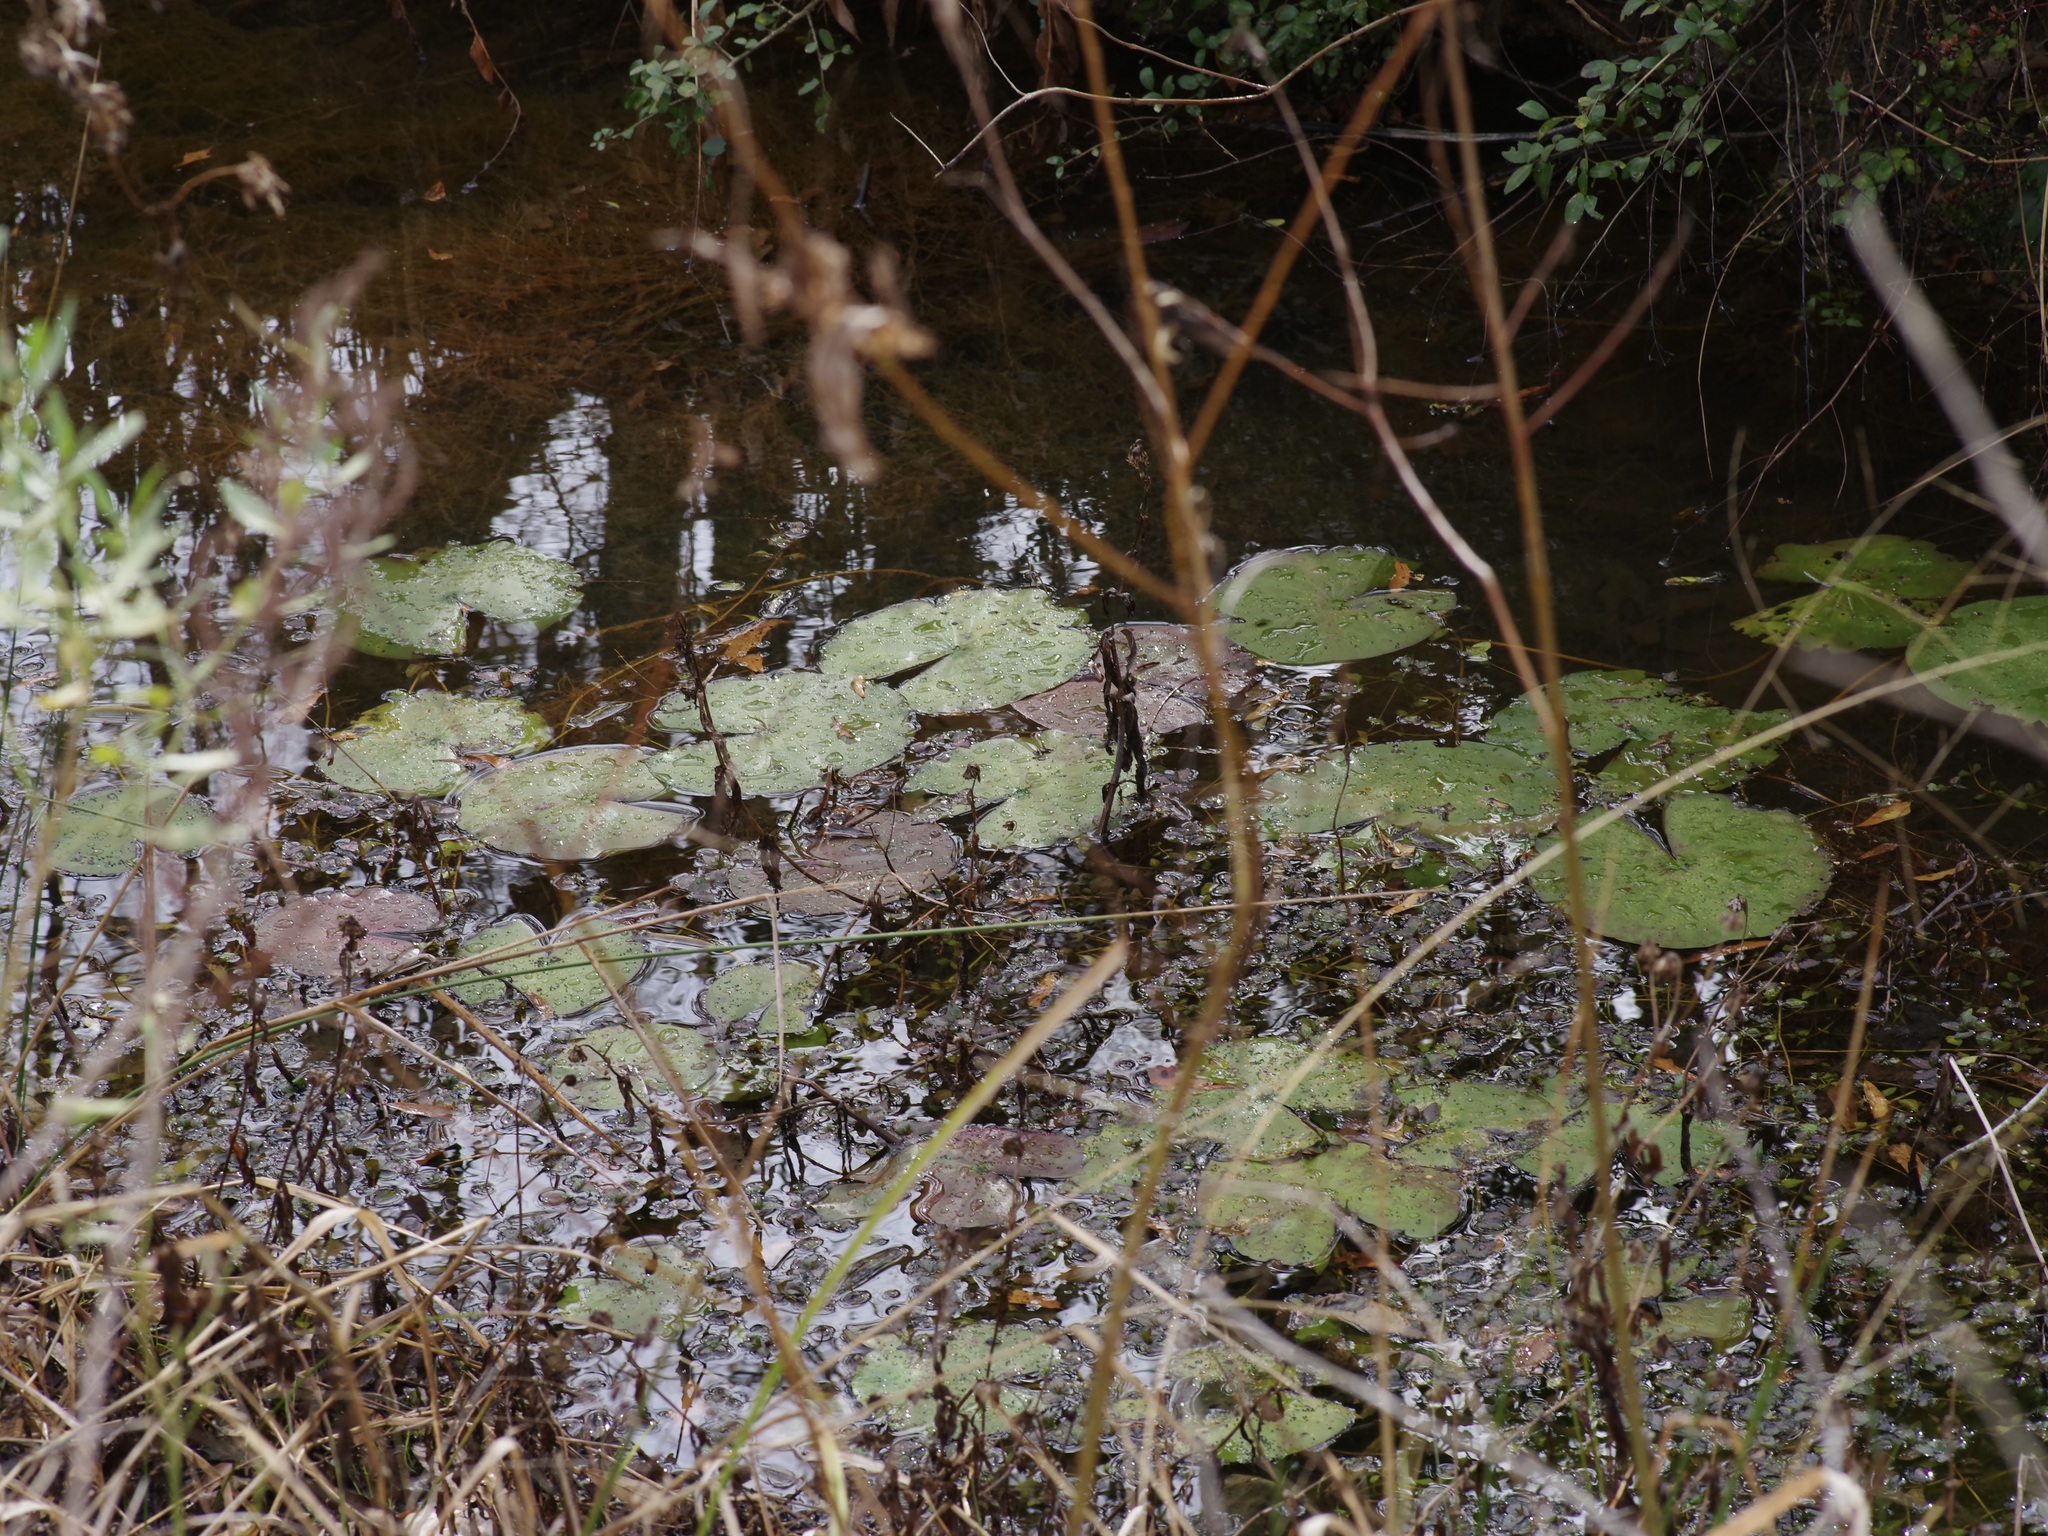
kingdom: Plantae
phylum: Tracheophyta
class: Magnoliopsida
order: Nymphaeales
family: Nymphaeaceae
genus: Nymphaea
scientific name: Nymphaea odorata
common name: Fragrant water-lily
